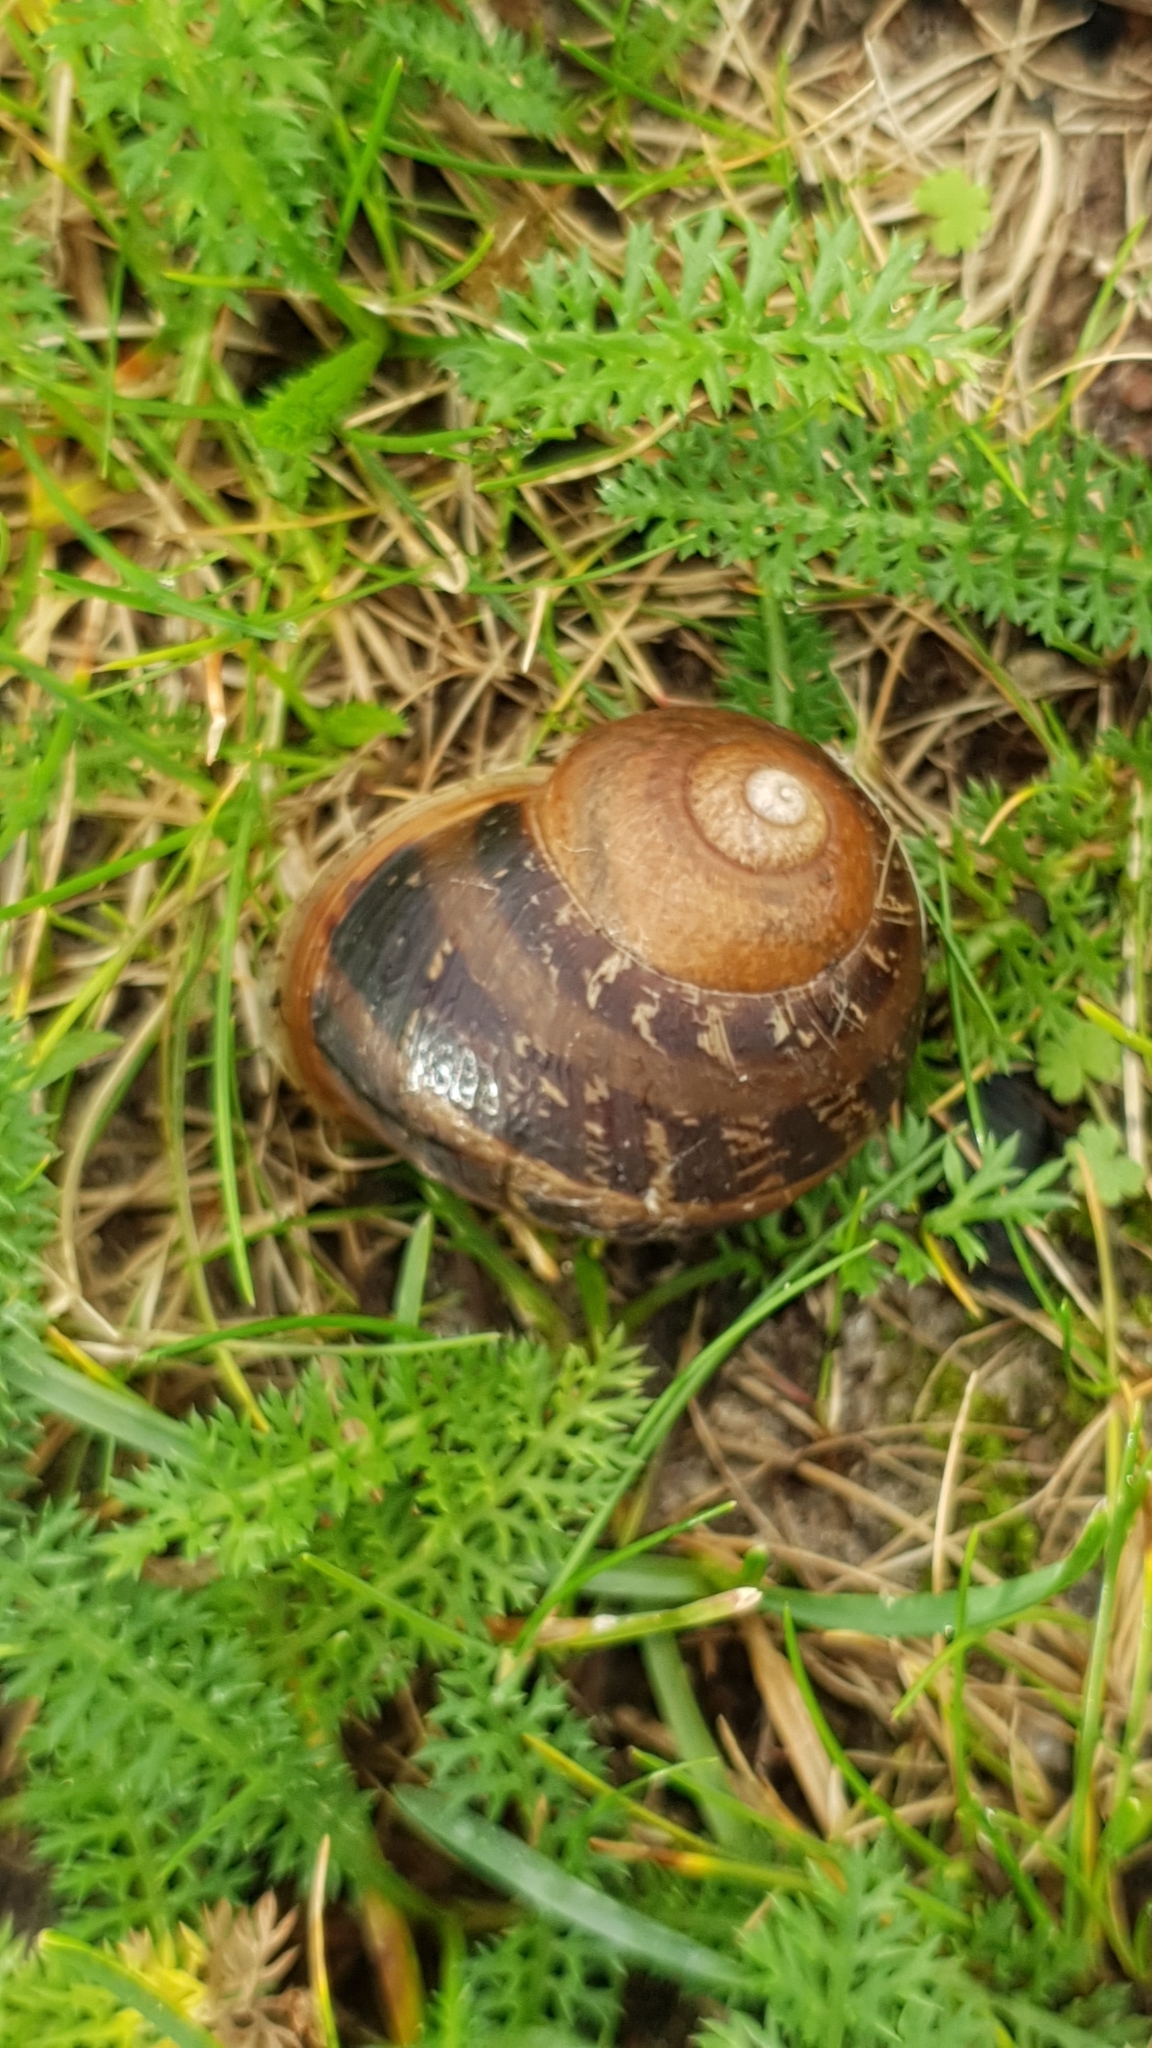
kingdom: Animalia
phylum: Mollusca
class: Gastropoda
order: Stylommatophora
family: Helicidae
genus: Cornu
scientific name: Cornu aspersum
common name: Brown garden snail
